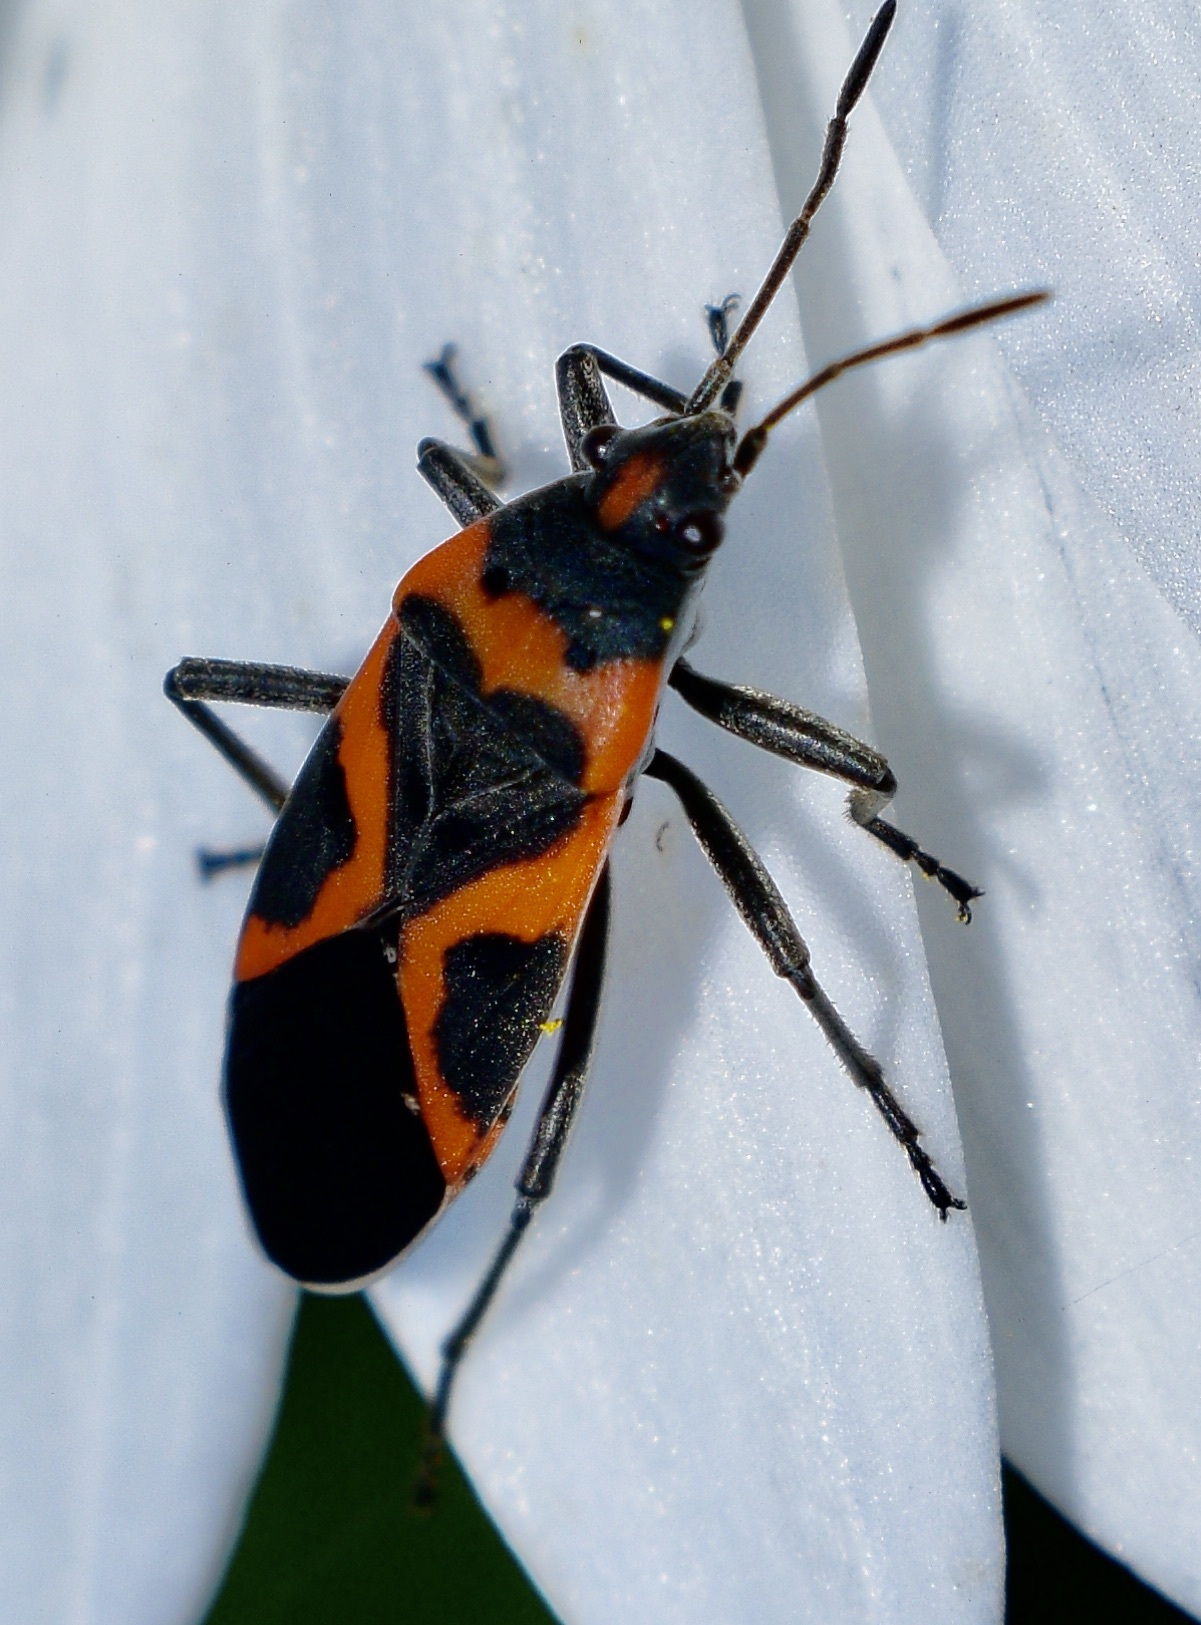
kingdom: Animalia
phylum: Arthropoda
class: Insecta
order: Hemiptera
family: Lygaeidae
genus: Lygaeus
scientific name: Lygaeus kalmii
